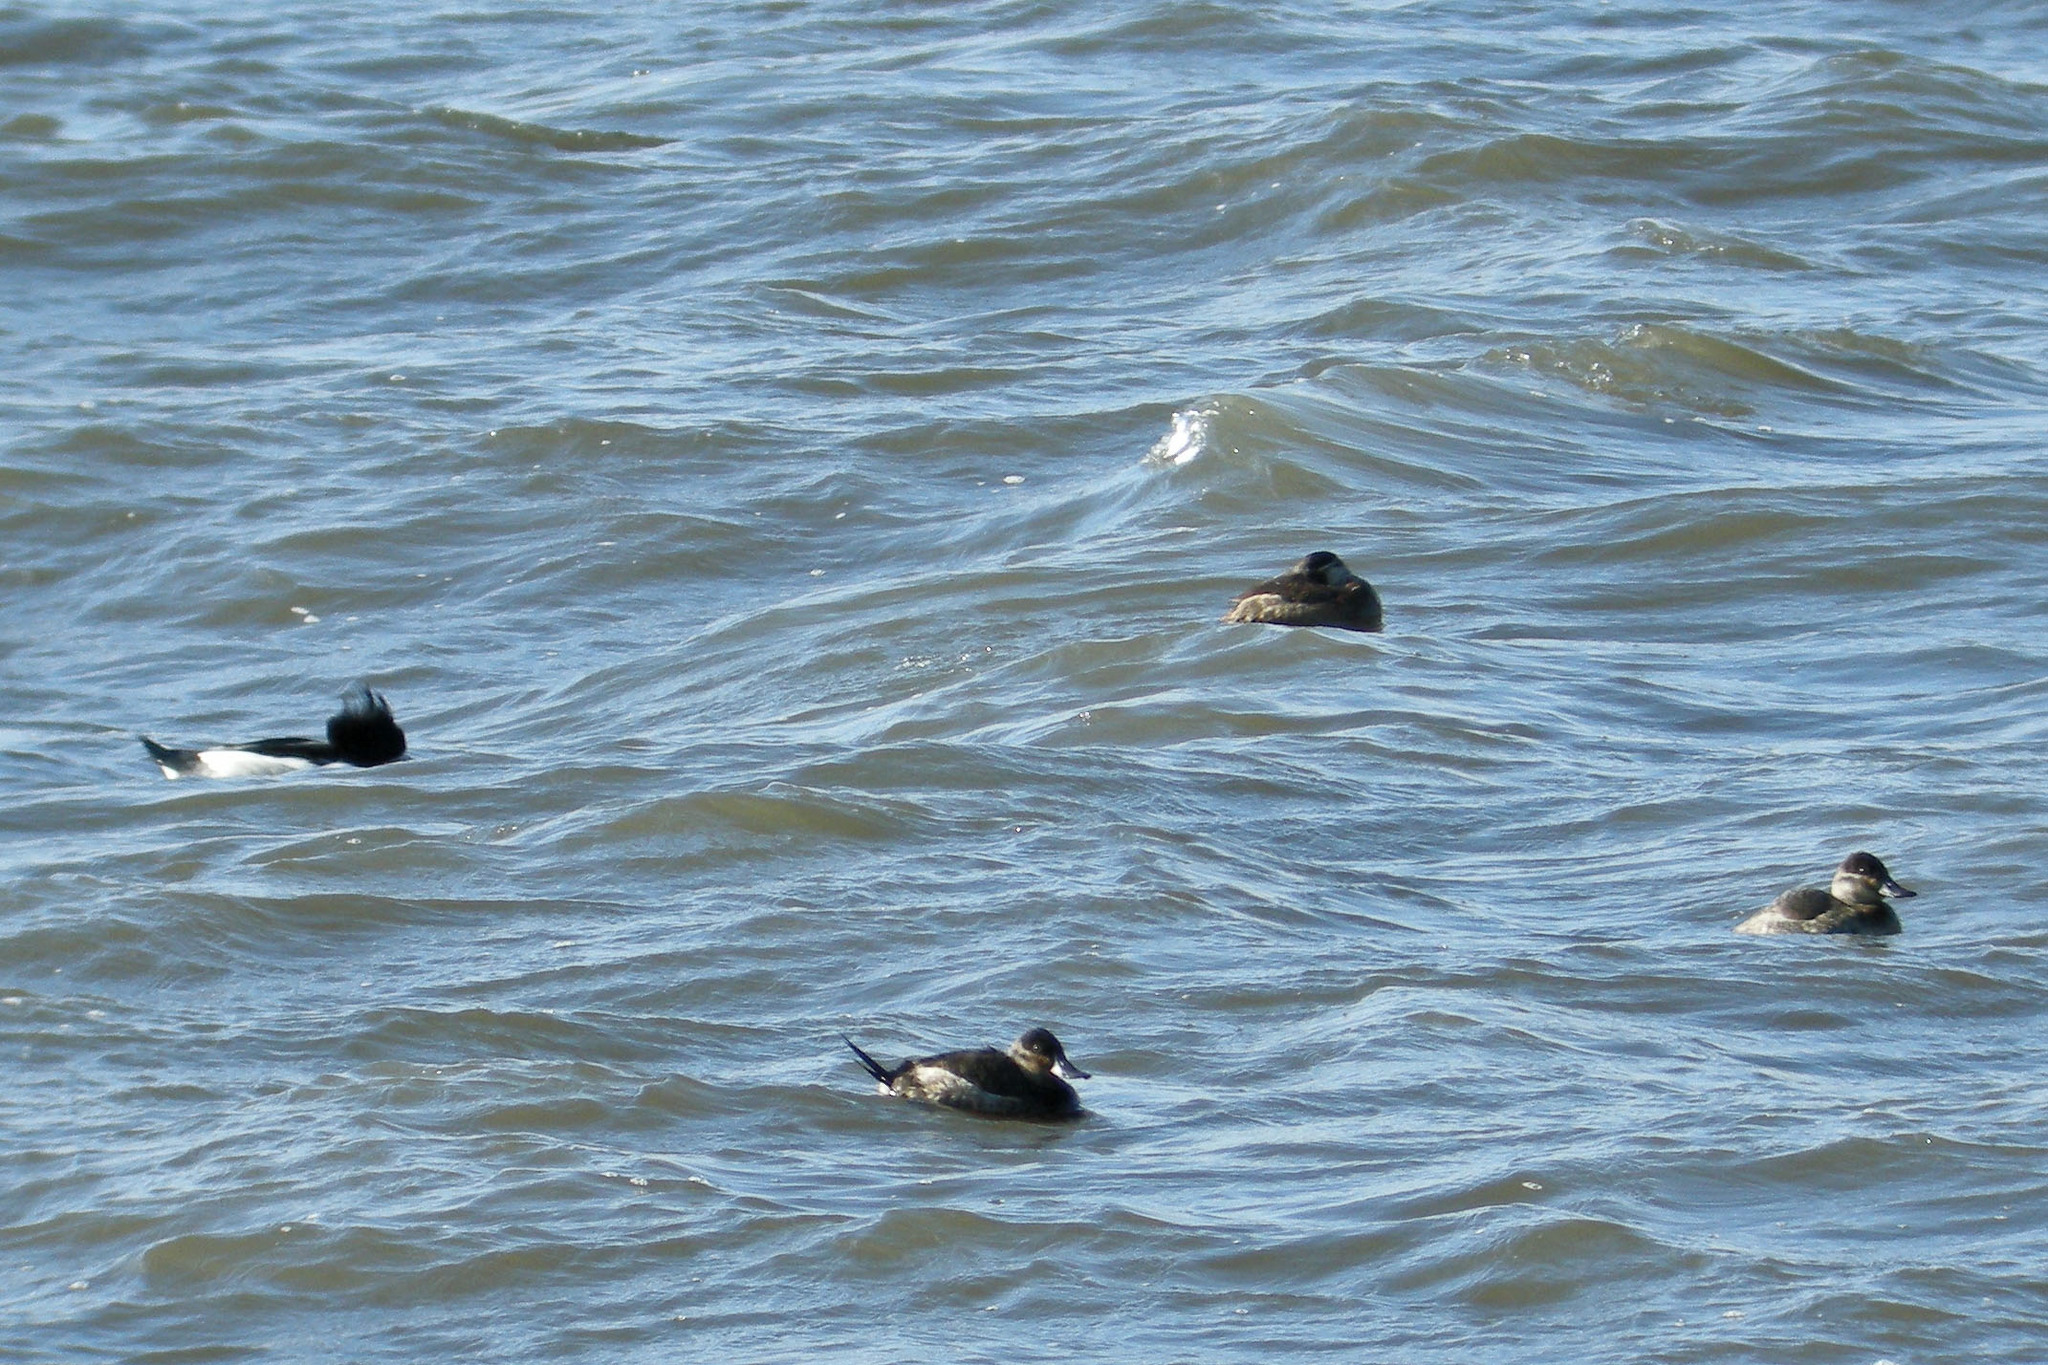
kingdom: Animalia
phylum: Chordata
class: Aves
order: Anseriformes
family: Anatidae
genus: Oxyura
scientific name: Oxyura jamaicensis
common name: Ruddy duck
